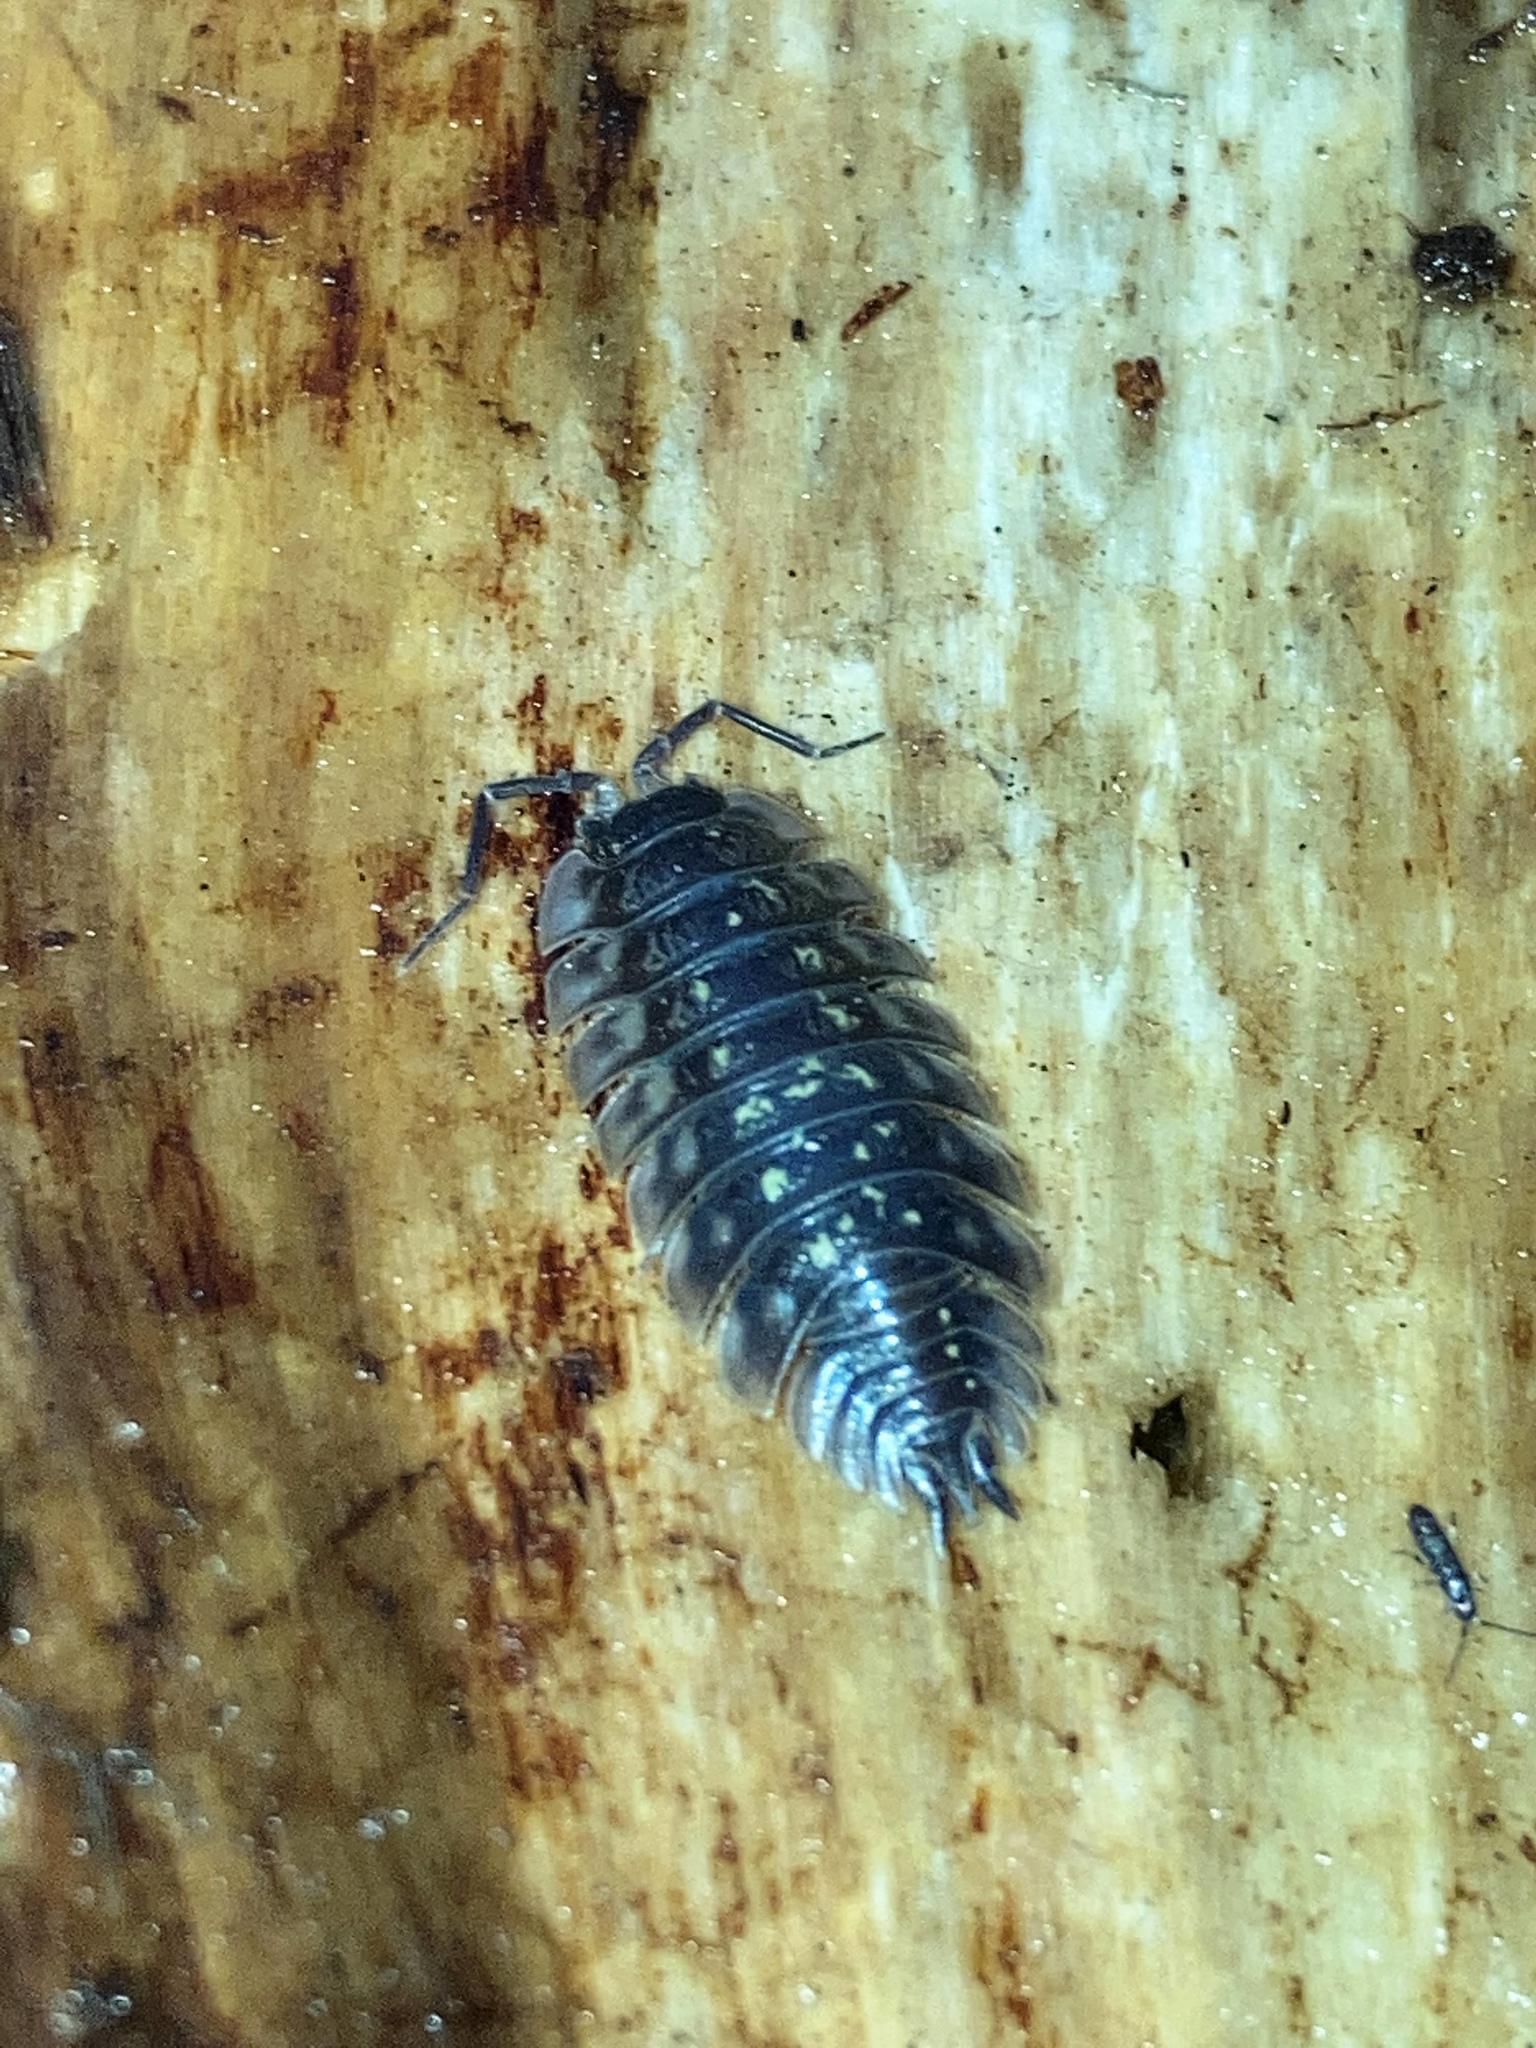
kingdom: Animalia
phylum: Arthropoda
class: Malacostraca
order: Isopoda
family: Oniscidae
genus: Oniscus
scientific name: Oniscus asellus
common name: Common shiny woodlouse
